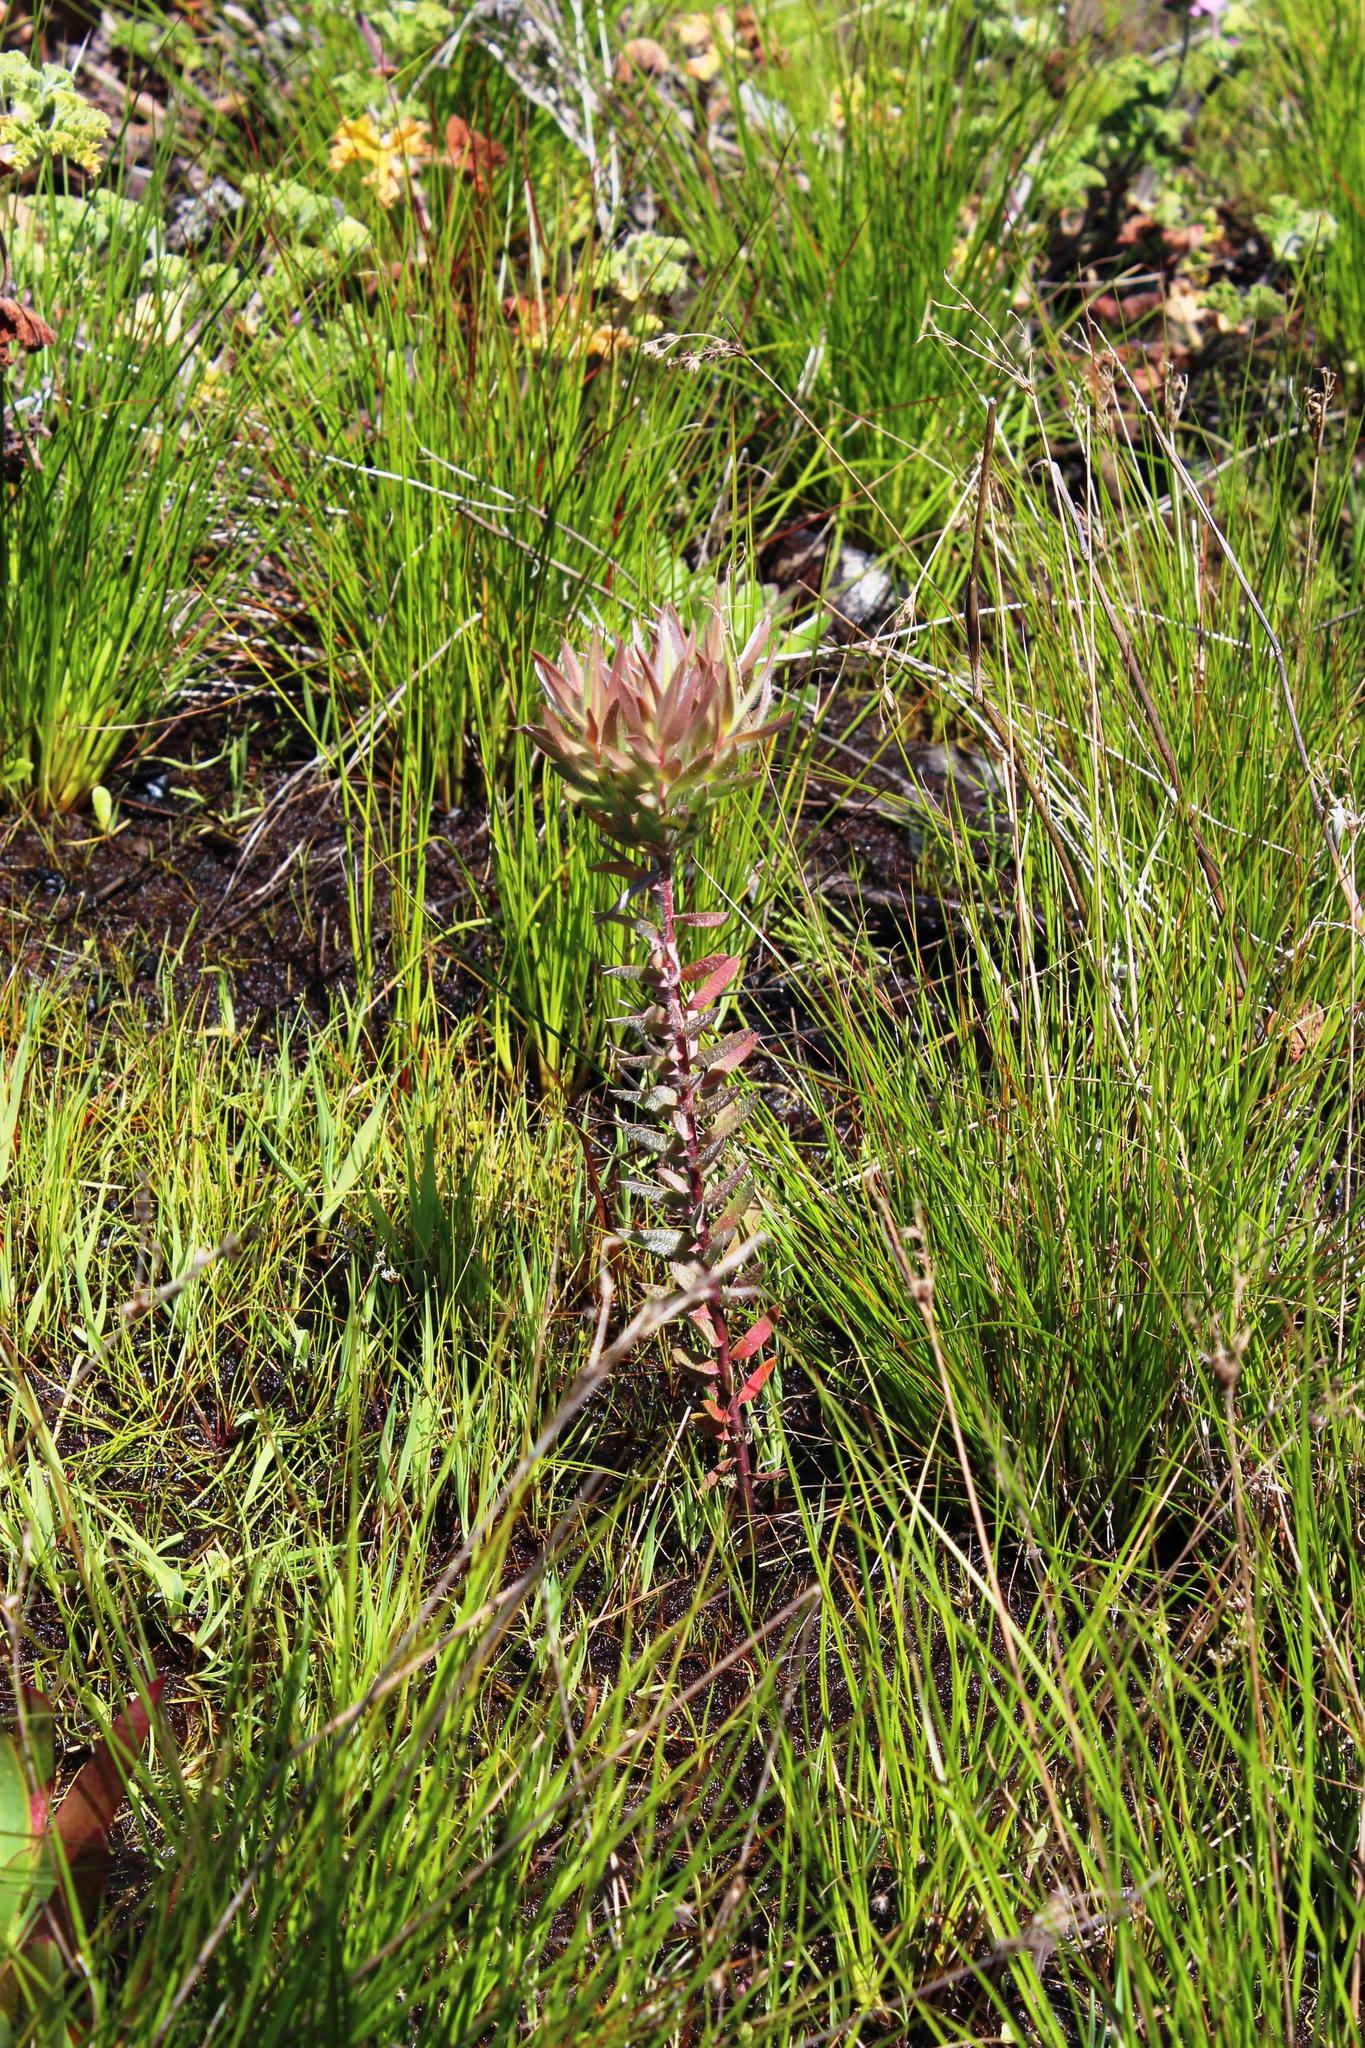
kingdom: Plantae
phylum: Tracheophyta
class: Magnoliopsida
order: Proteales
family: Proteaceae
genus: Leucadendron
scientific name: Leucadendron floridum
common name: Flats conebush
